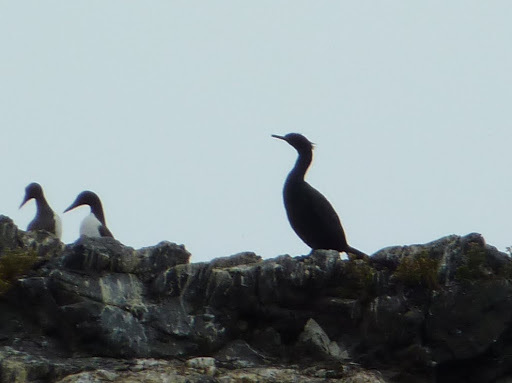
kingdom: Animalia
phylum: Chordata
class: Aves
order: Suliformes
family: Phalacrocoracidae
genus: Phalacrocorax
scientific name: Phalacrocorax pelagicus
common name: Pelagic cormorant
